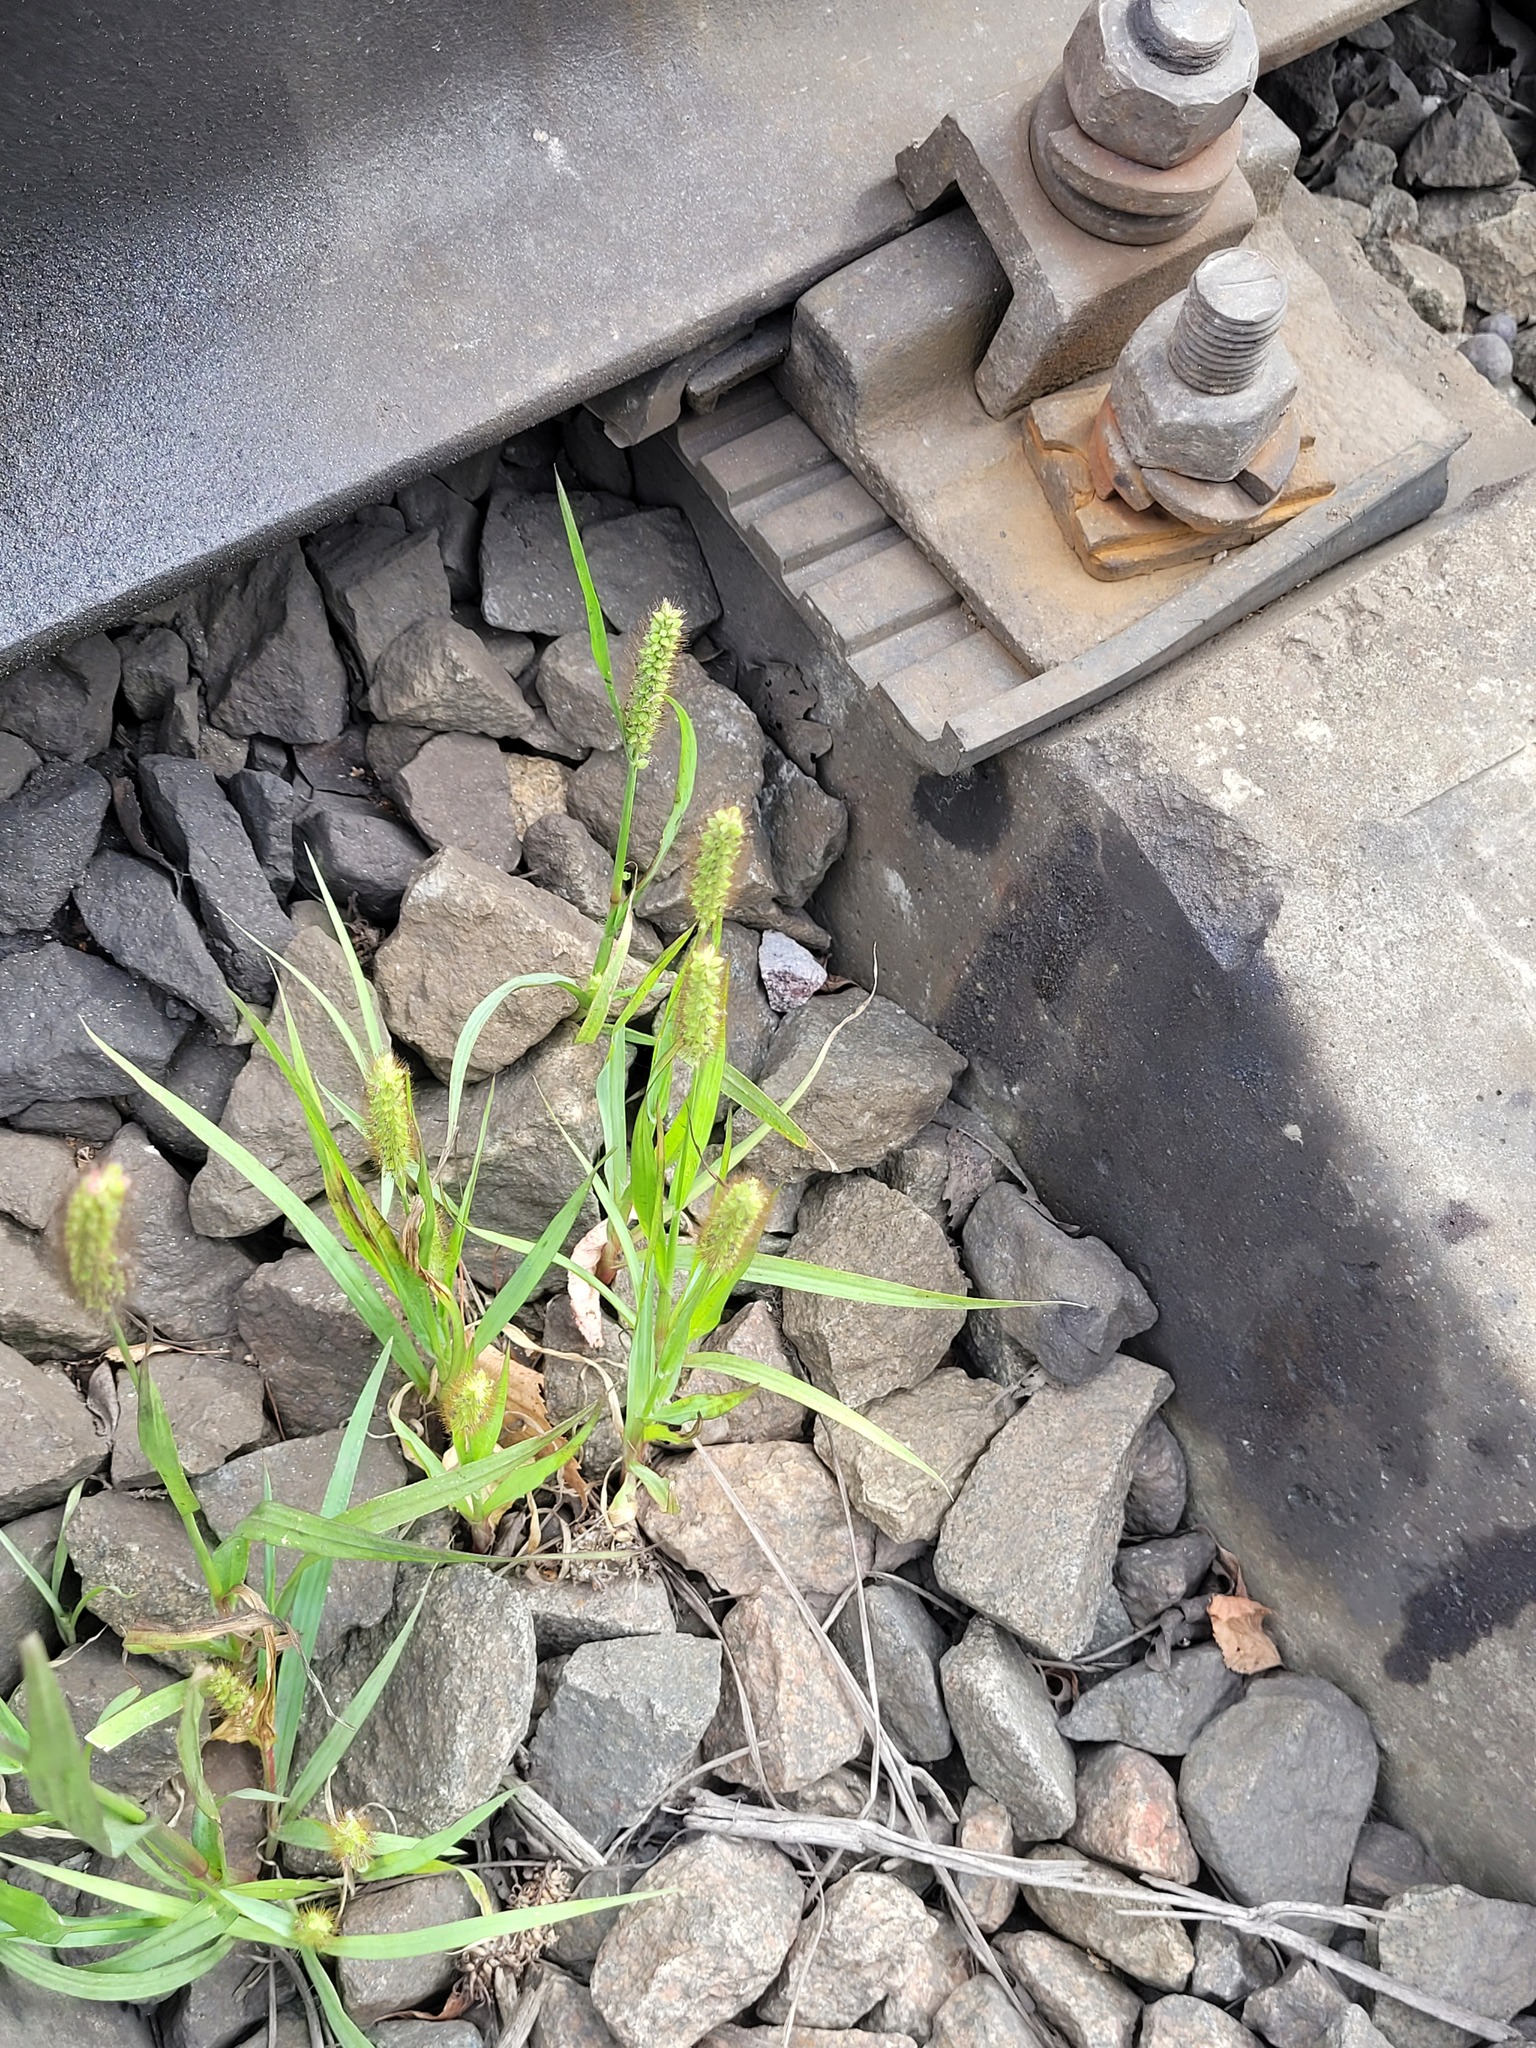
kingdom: Plantae
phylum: Tracheophyta
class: Liliopsida
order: Poales
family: Poaceae
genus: Setaria
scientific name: Setaria pumila
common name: Yellow bristle-grass
